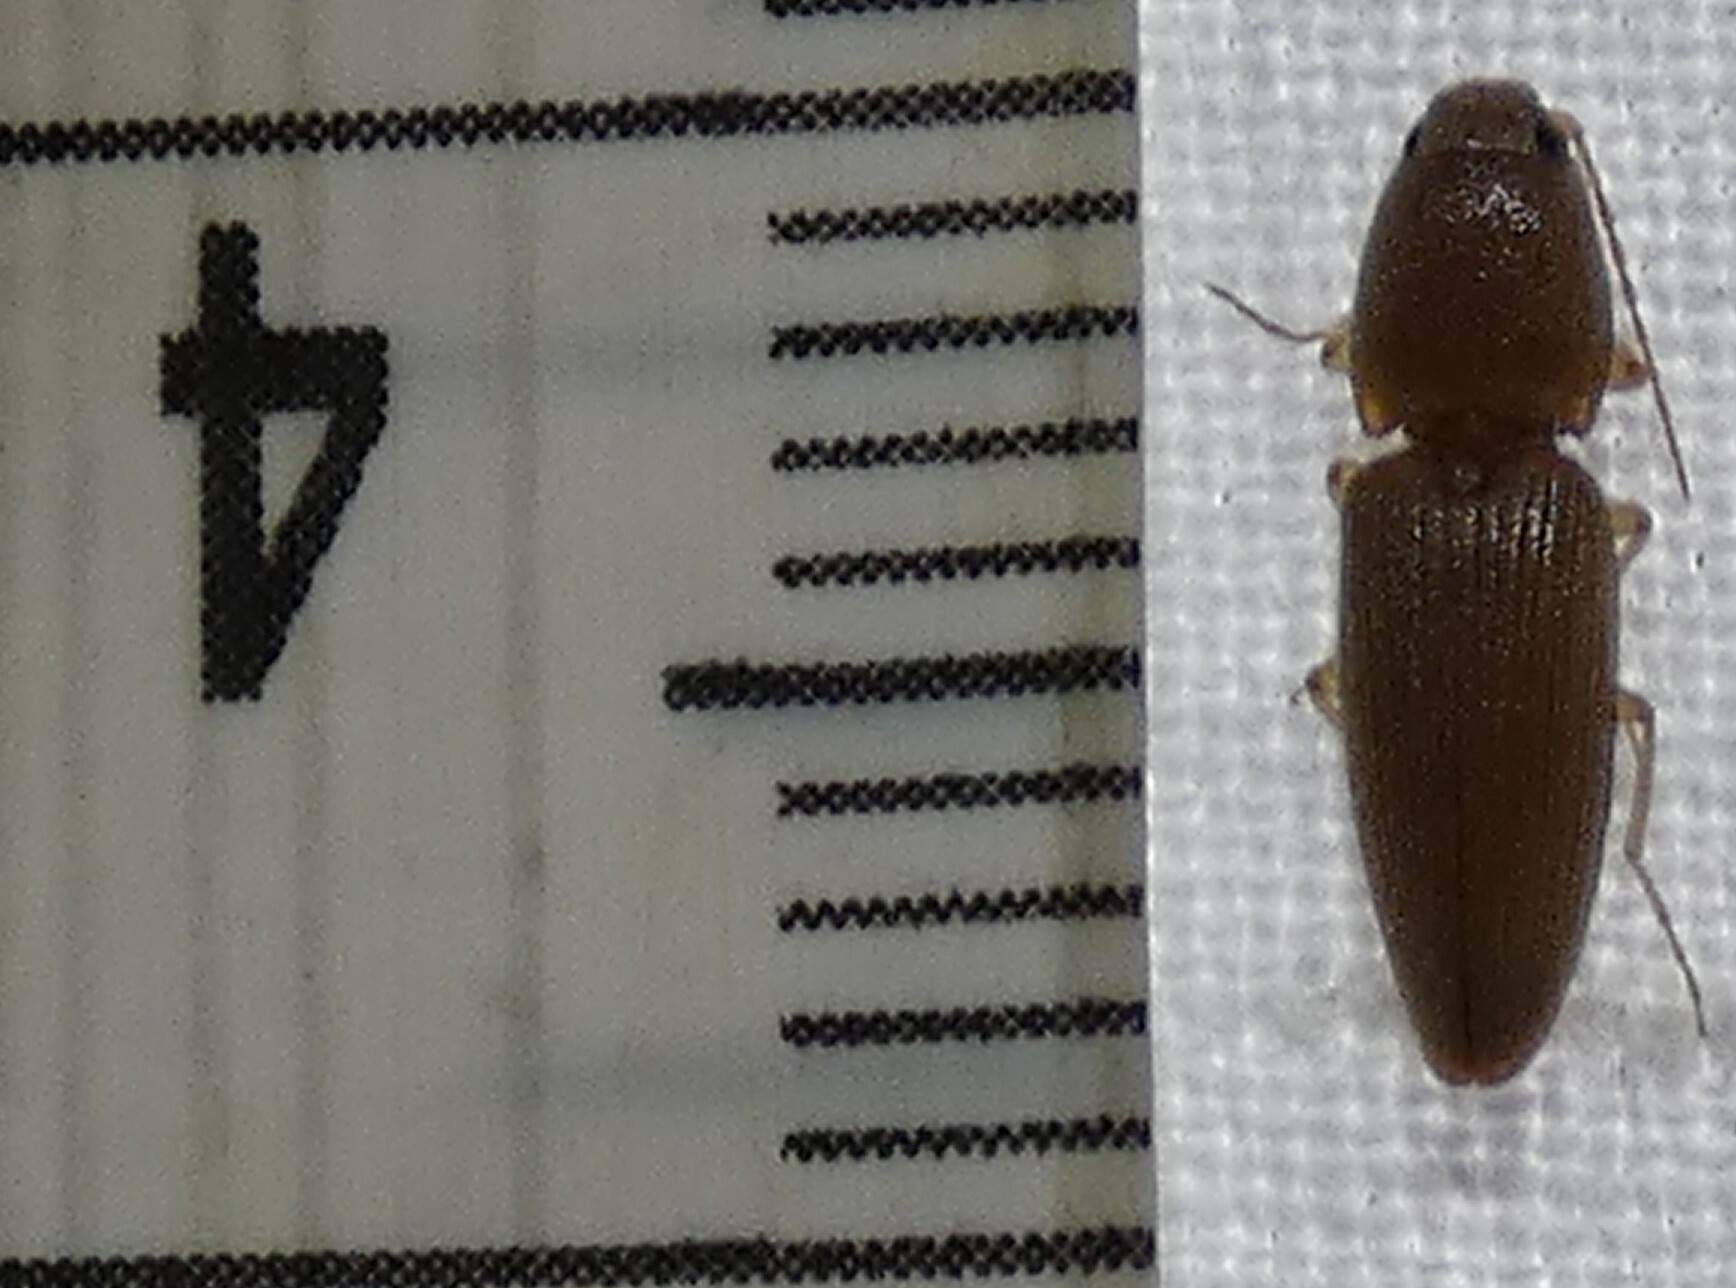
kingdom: Animalia
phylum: Arthropoda
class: Insecta
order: Coleoptera
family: Elateridae
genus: Monocrepidius
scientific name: Monocrepidius scissus
